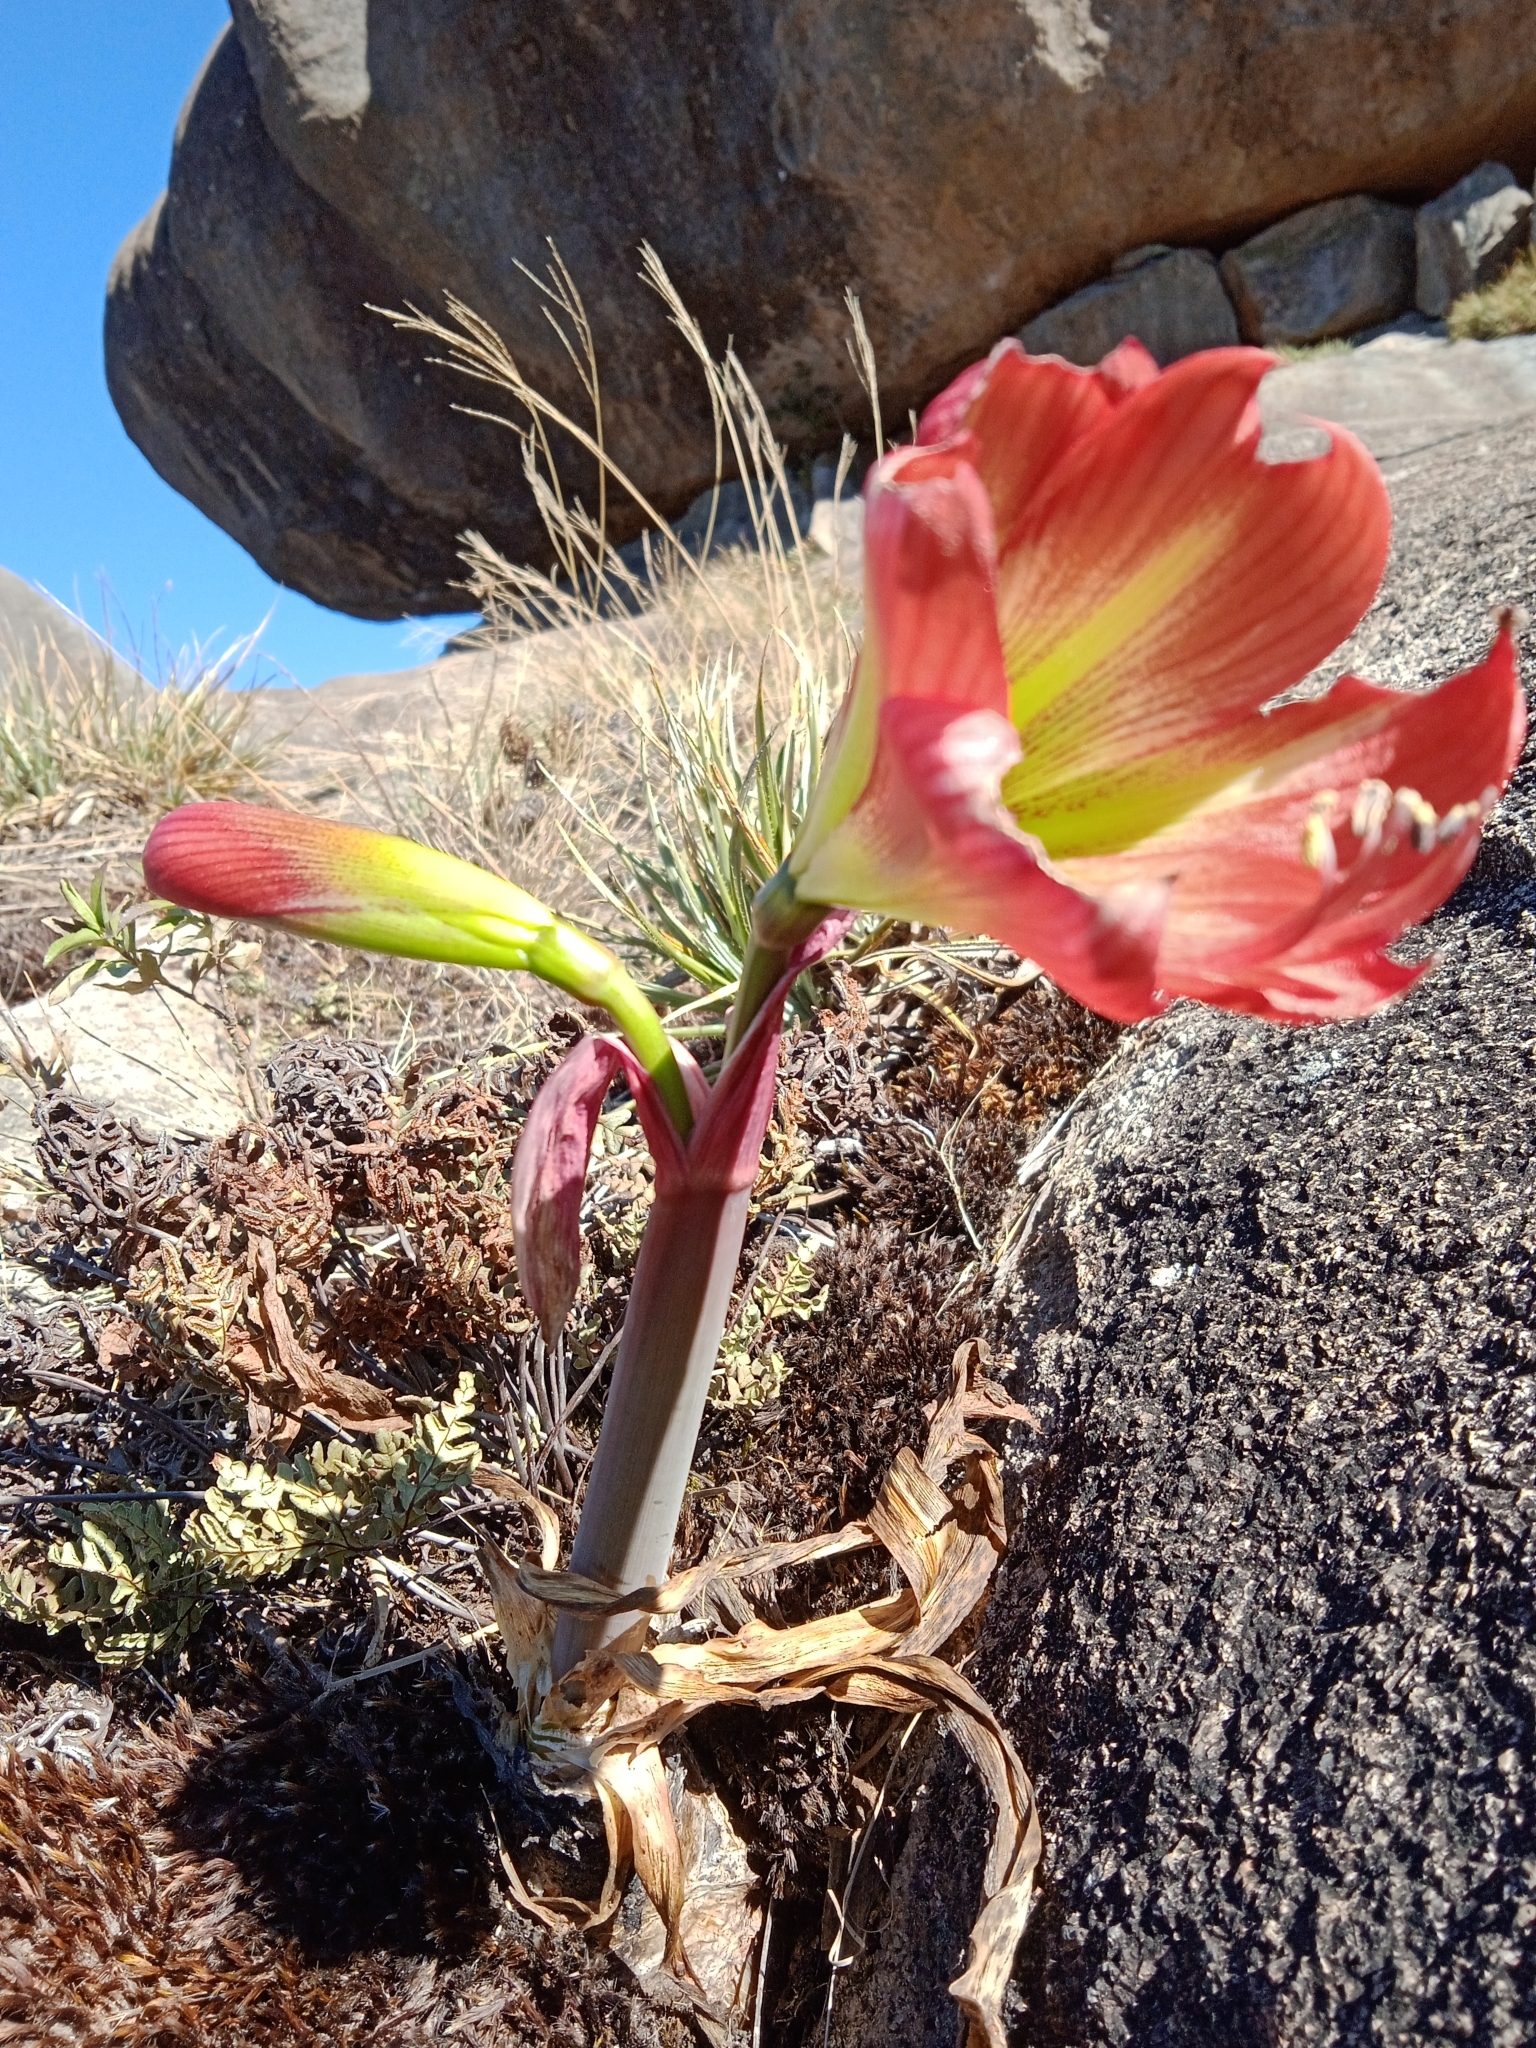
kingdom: Plantae
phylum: Tracheophyta
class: Liliopsida
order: Asparagales
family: Amaryllidaceae
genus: Hippeastrum
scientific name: Hippeastrum morelianum
